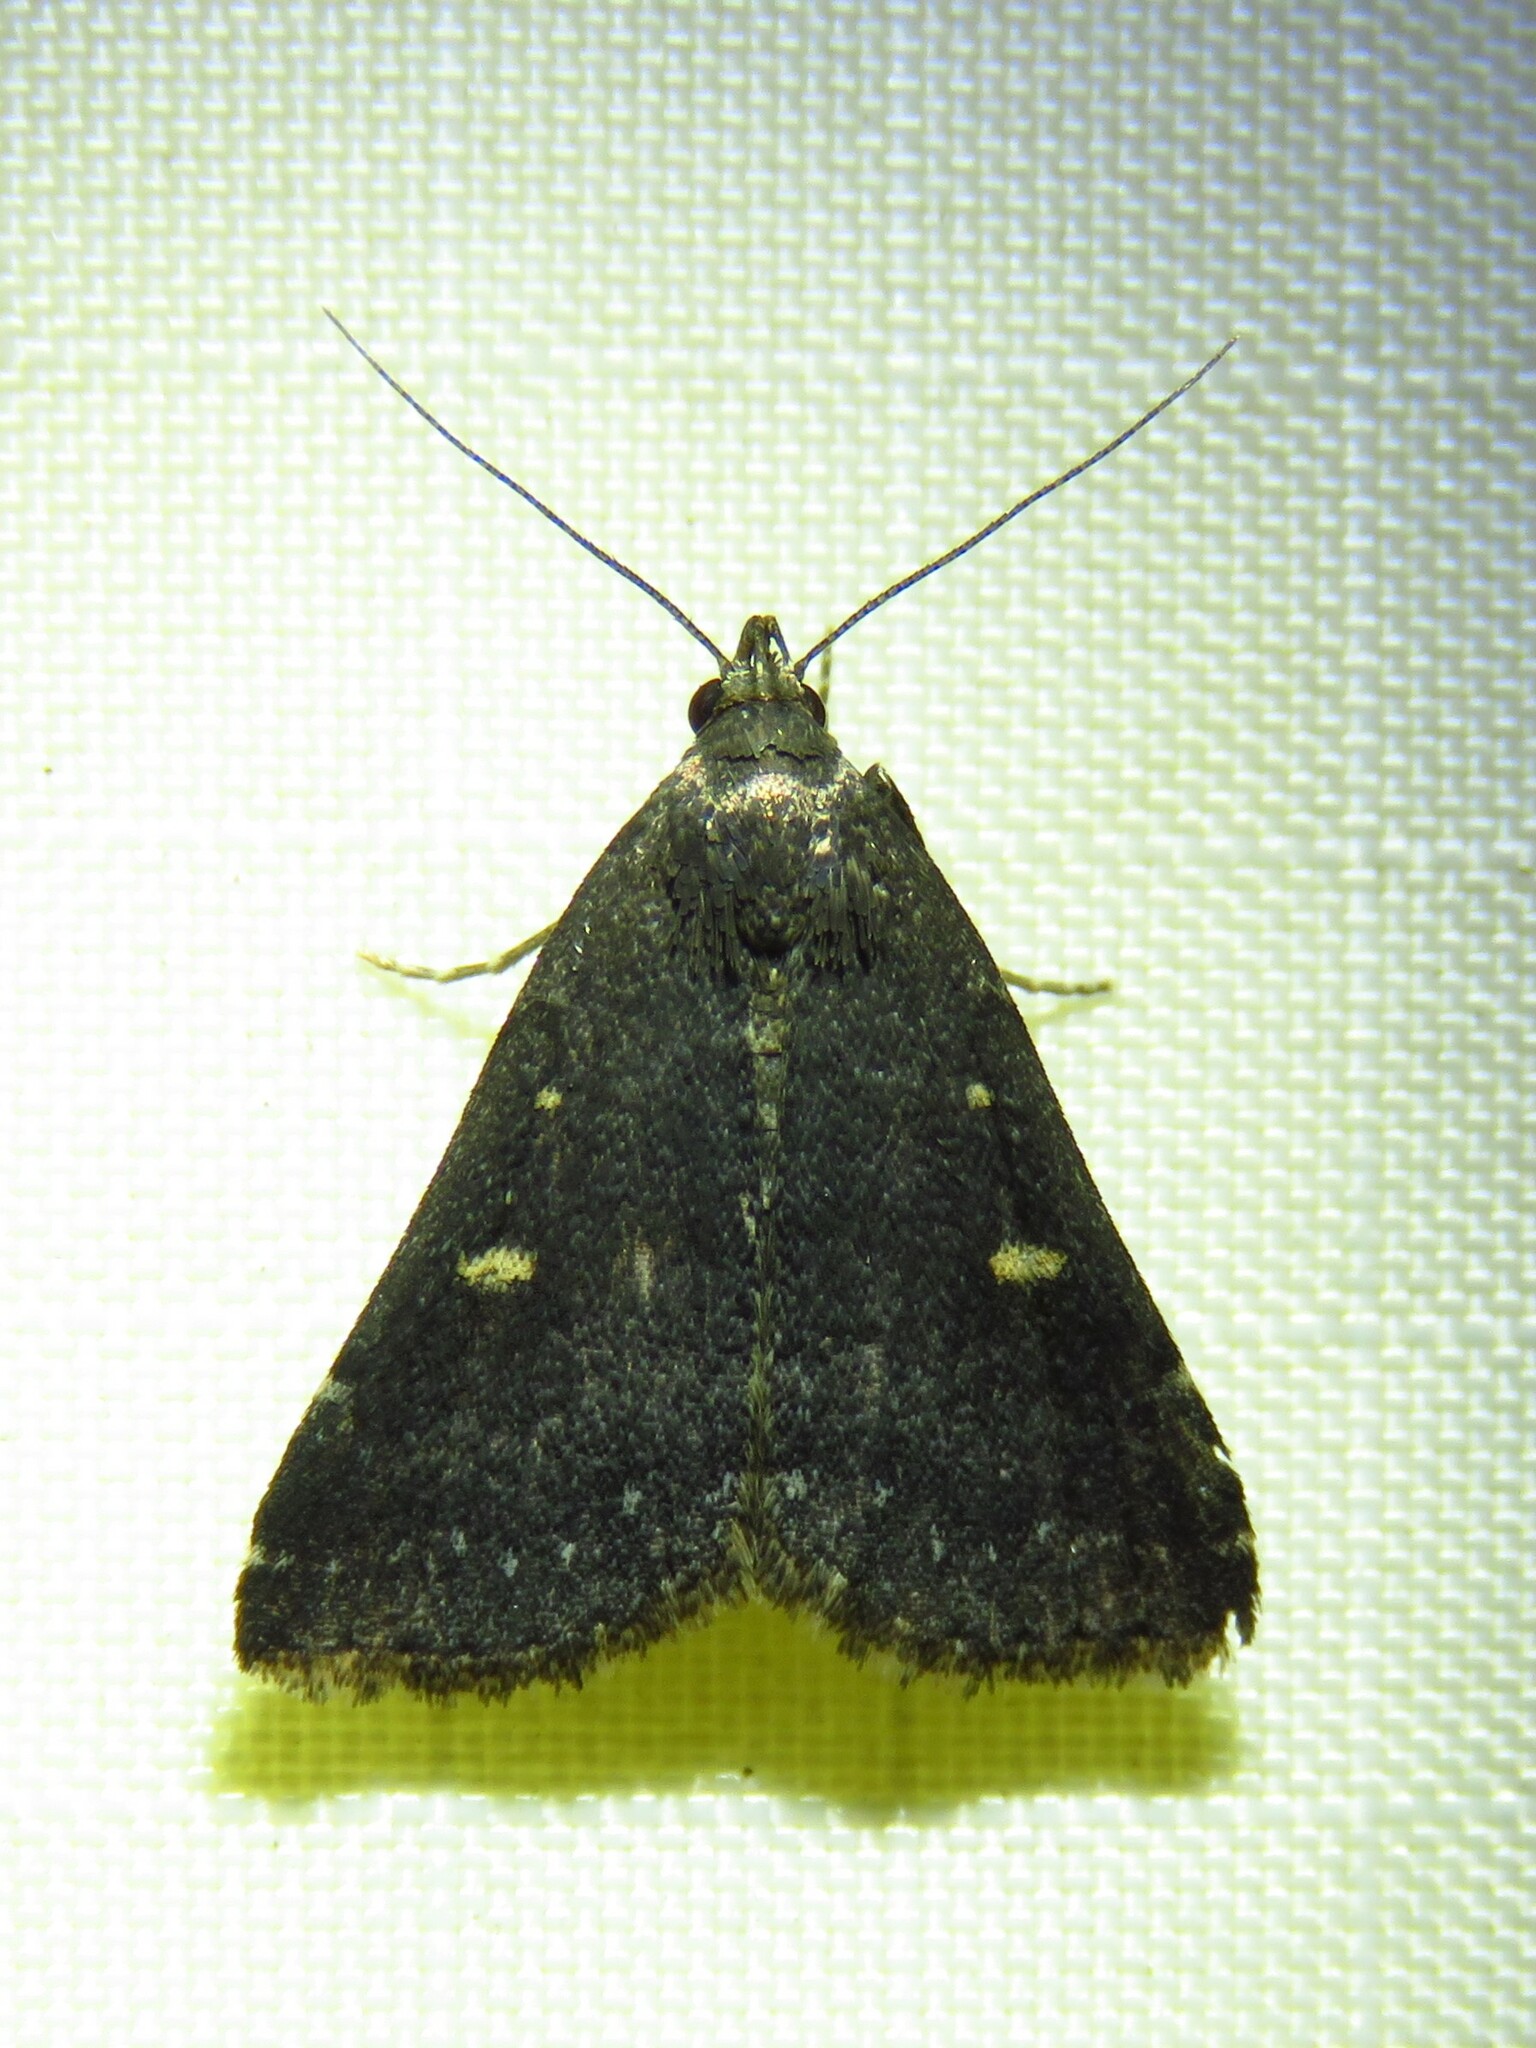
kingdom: Animalia
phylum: Arthropoda
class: Insecta
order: Lepidoptera
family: Erebidae
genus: Tetanolita
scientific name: Tetanolita mynesalis
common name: Smoky tetanolita moth
